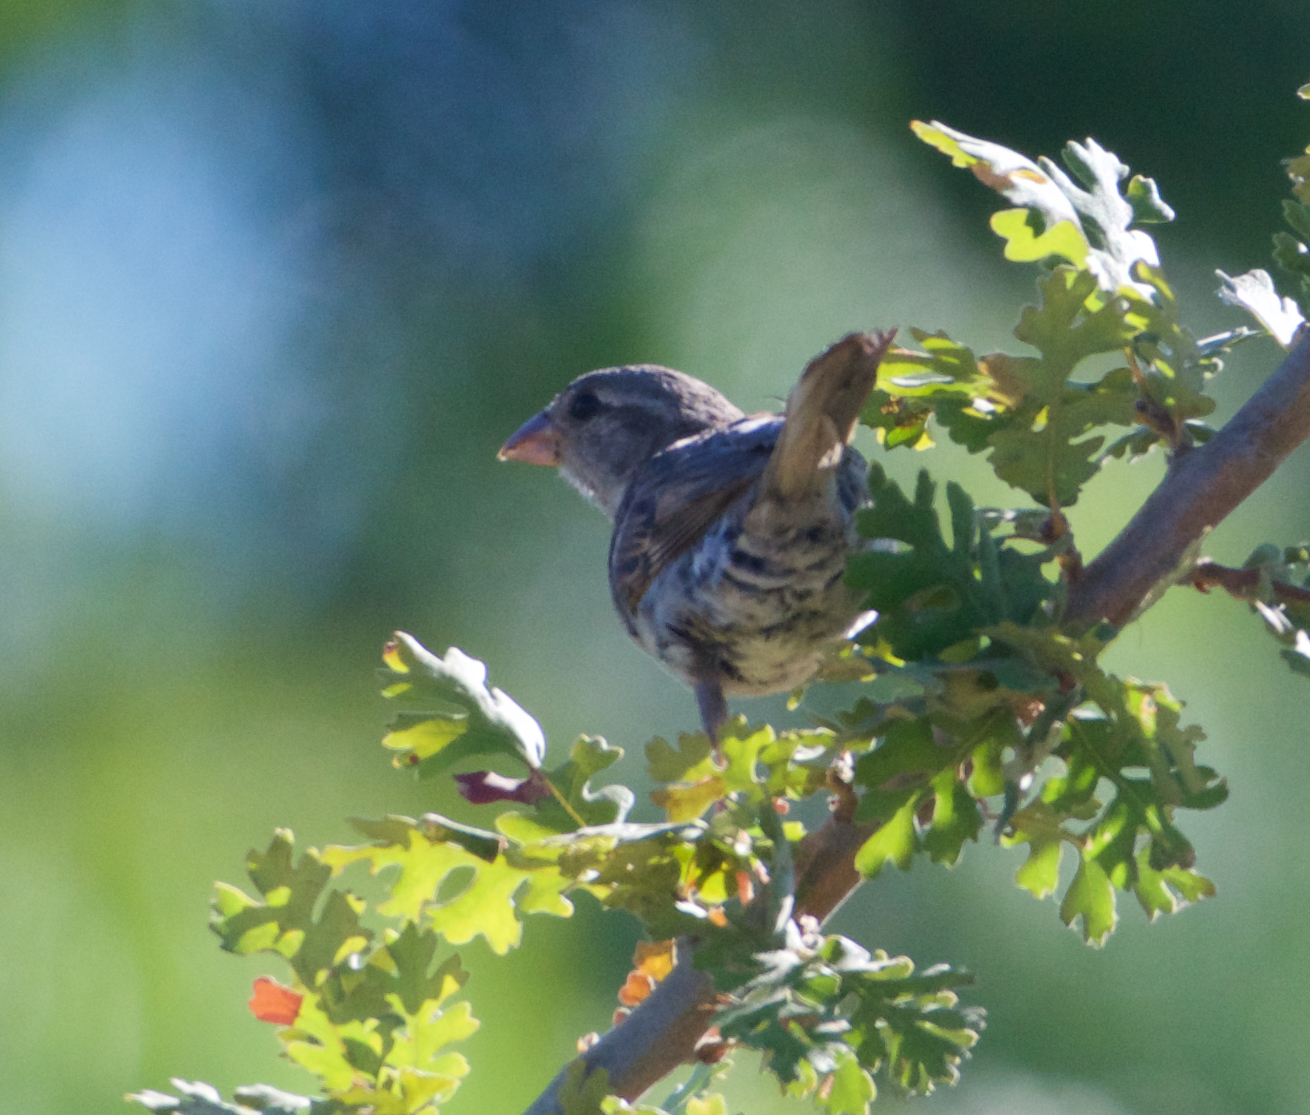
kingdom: Animalia
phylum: Chordata
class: Aves
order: Passeriformes
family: Passeridae
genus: Passer
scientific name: Passer domesticus
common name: House sparrow
